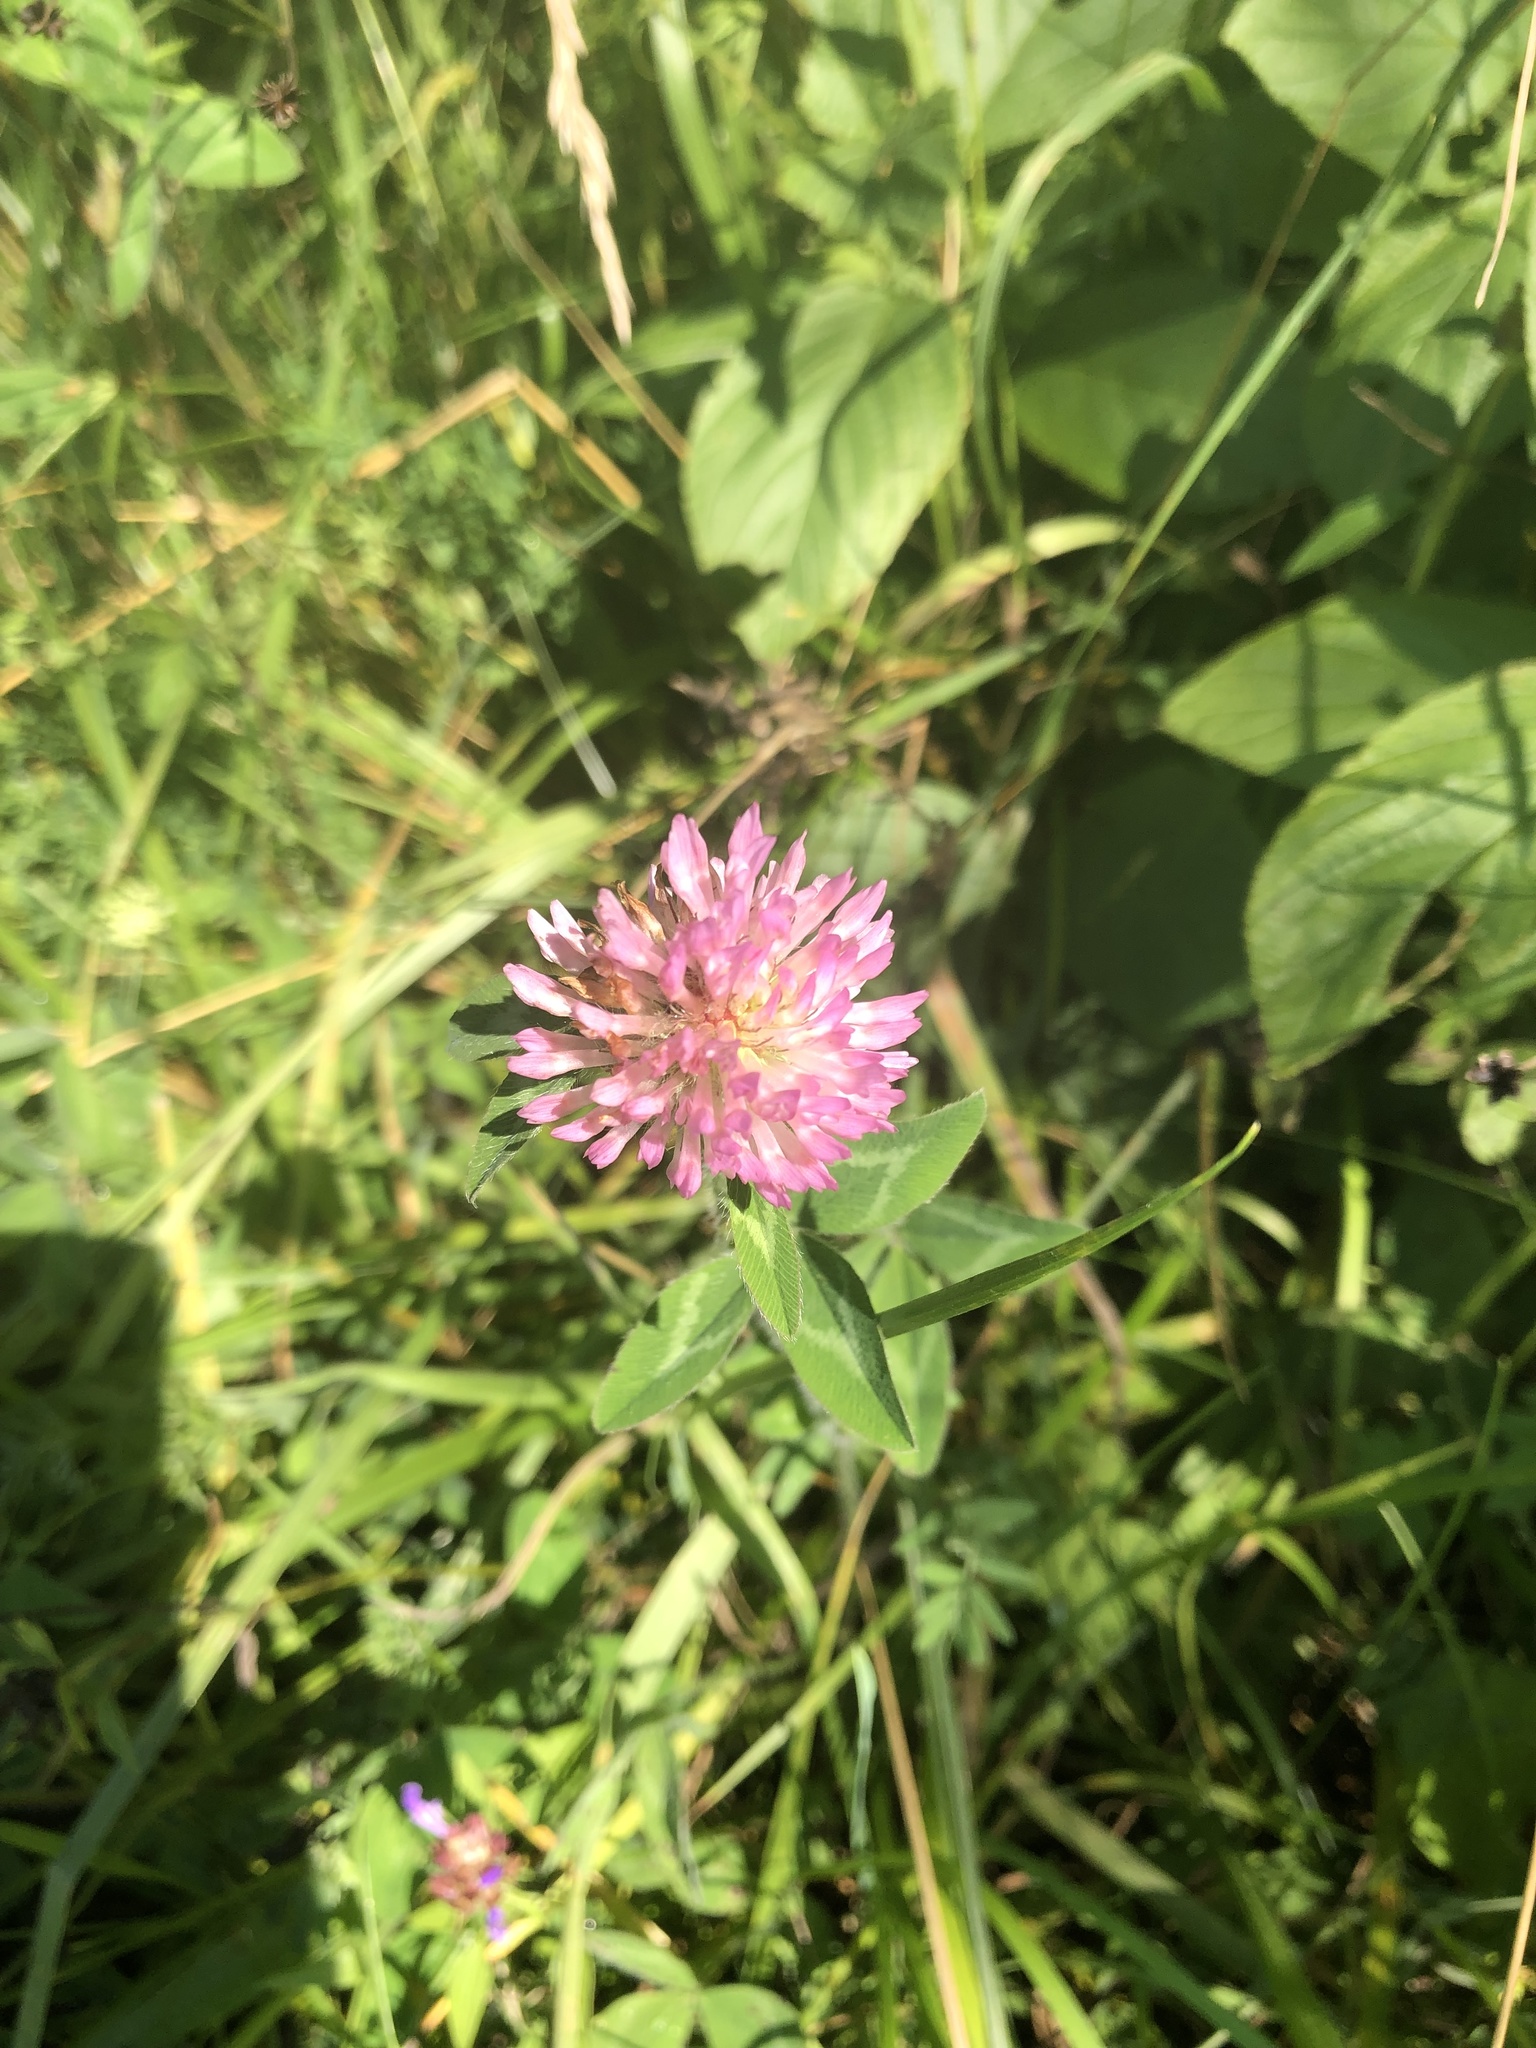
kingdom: Plantae
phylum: Tracheophyta
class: Magnoliopsida
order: Fabales
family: Fabaceae
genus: Trifolium
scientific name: Trifolium pratense
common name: Red clover
